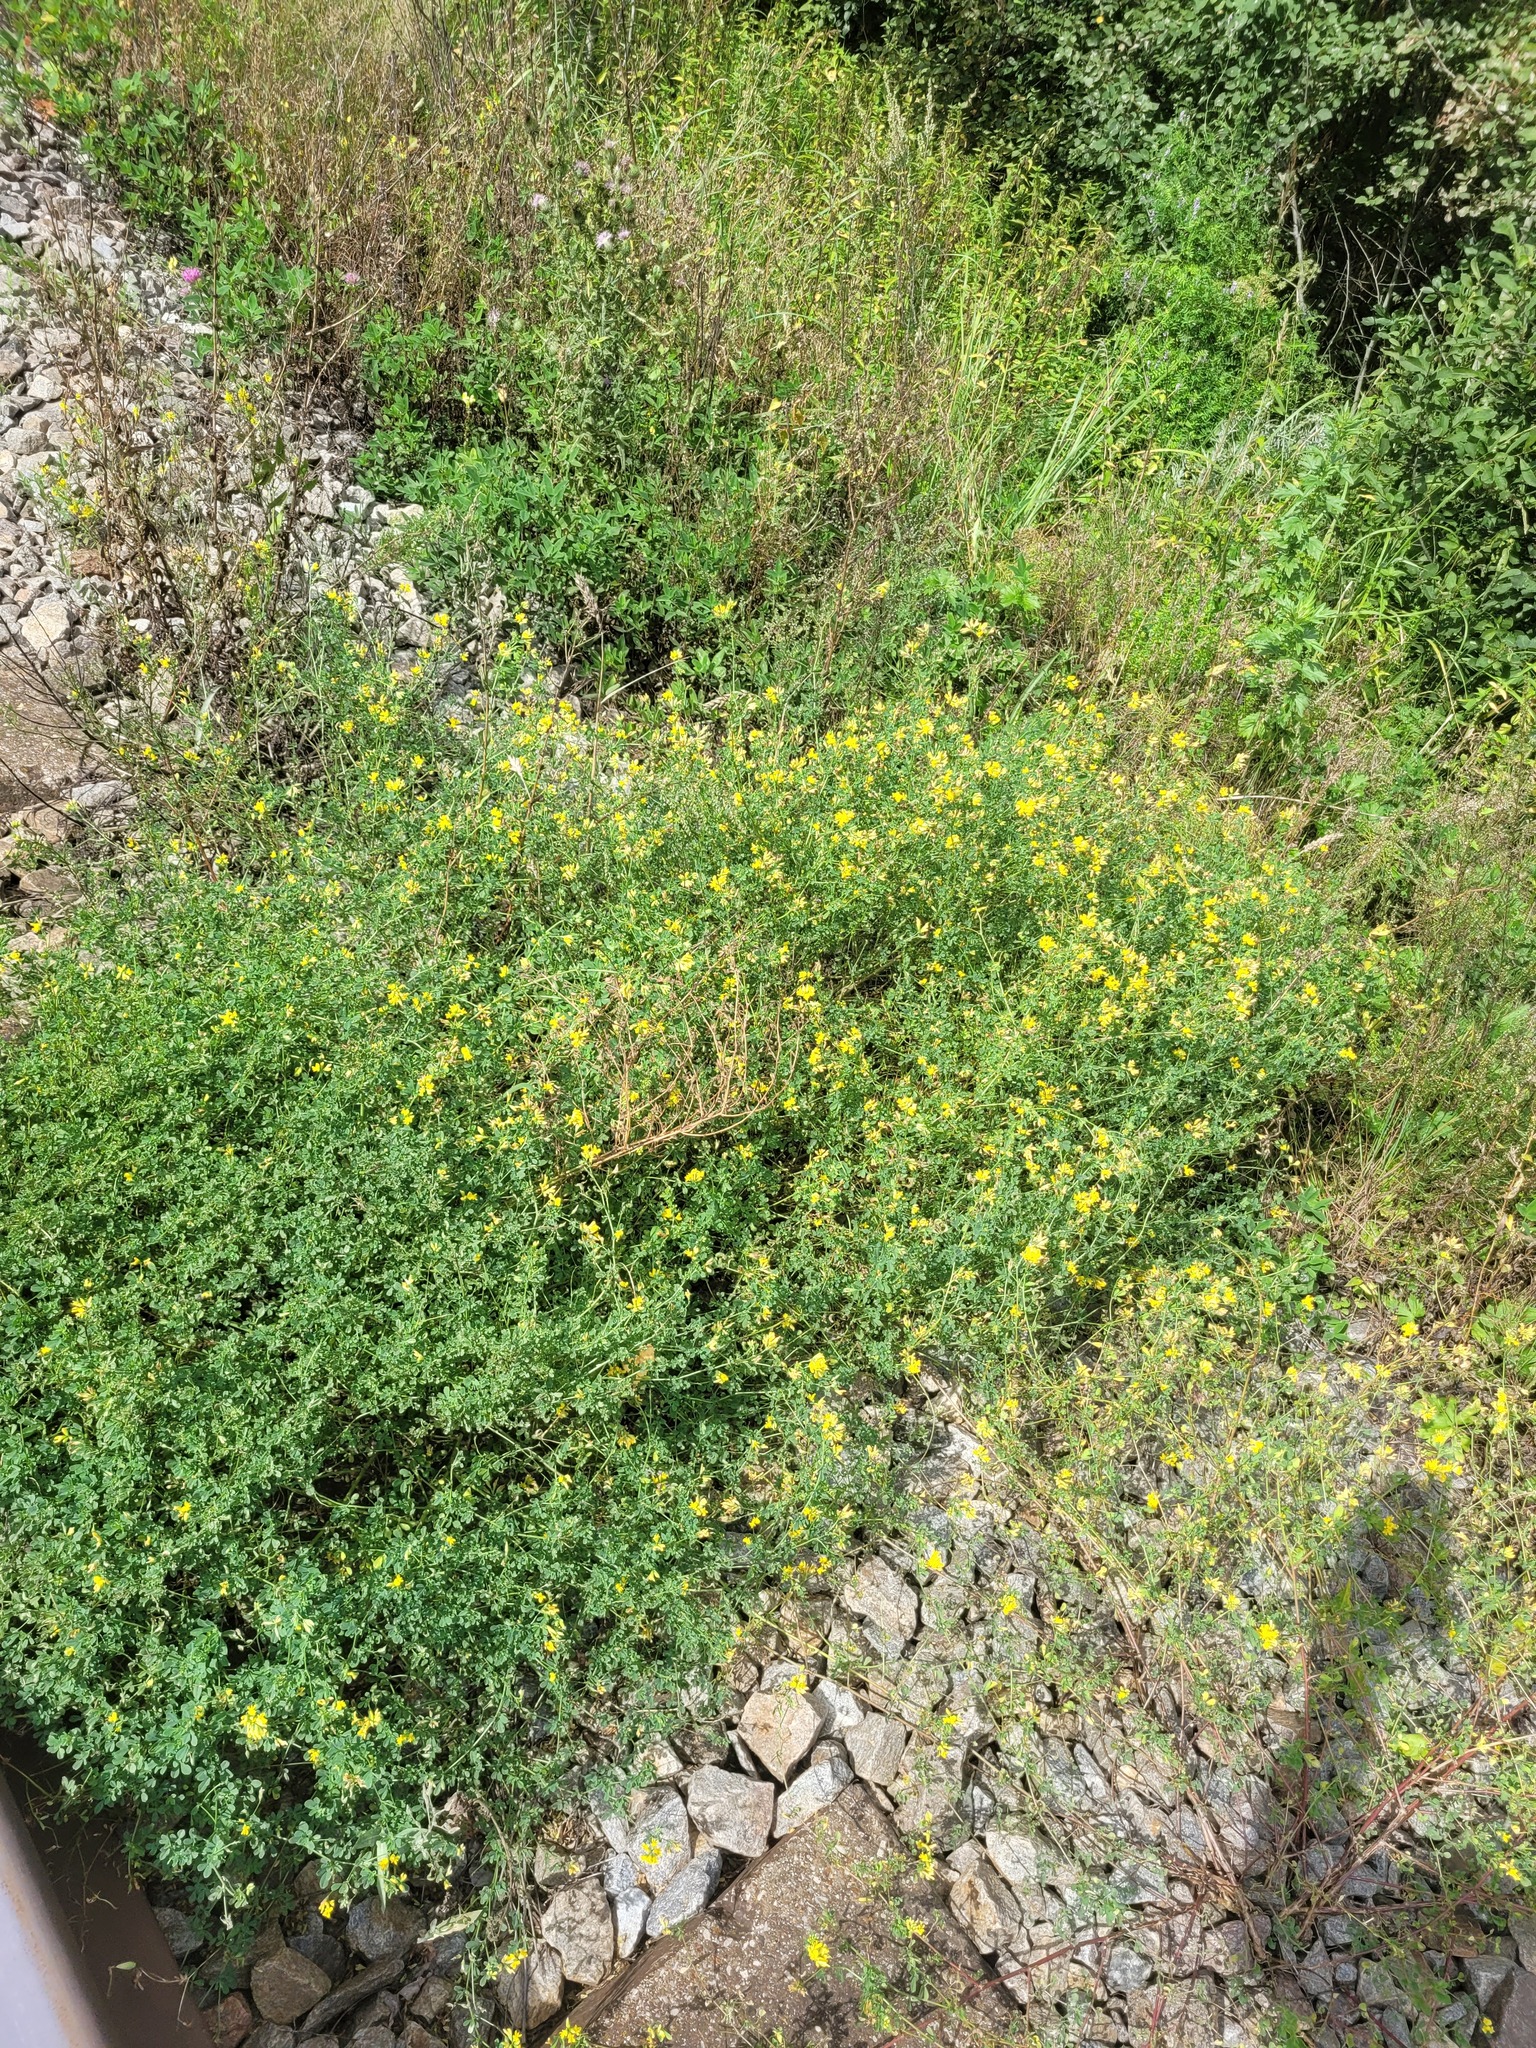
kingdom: Plantae
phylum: Tracheophyta
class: Magnoliopsida
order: Fabales
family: Fabaceae
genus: Medicago
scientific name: Medicago falcata
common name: Sickle medick
